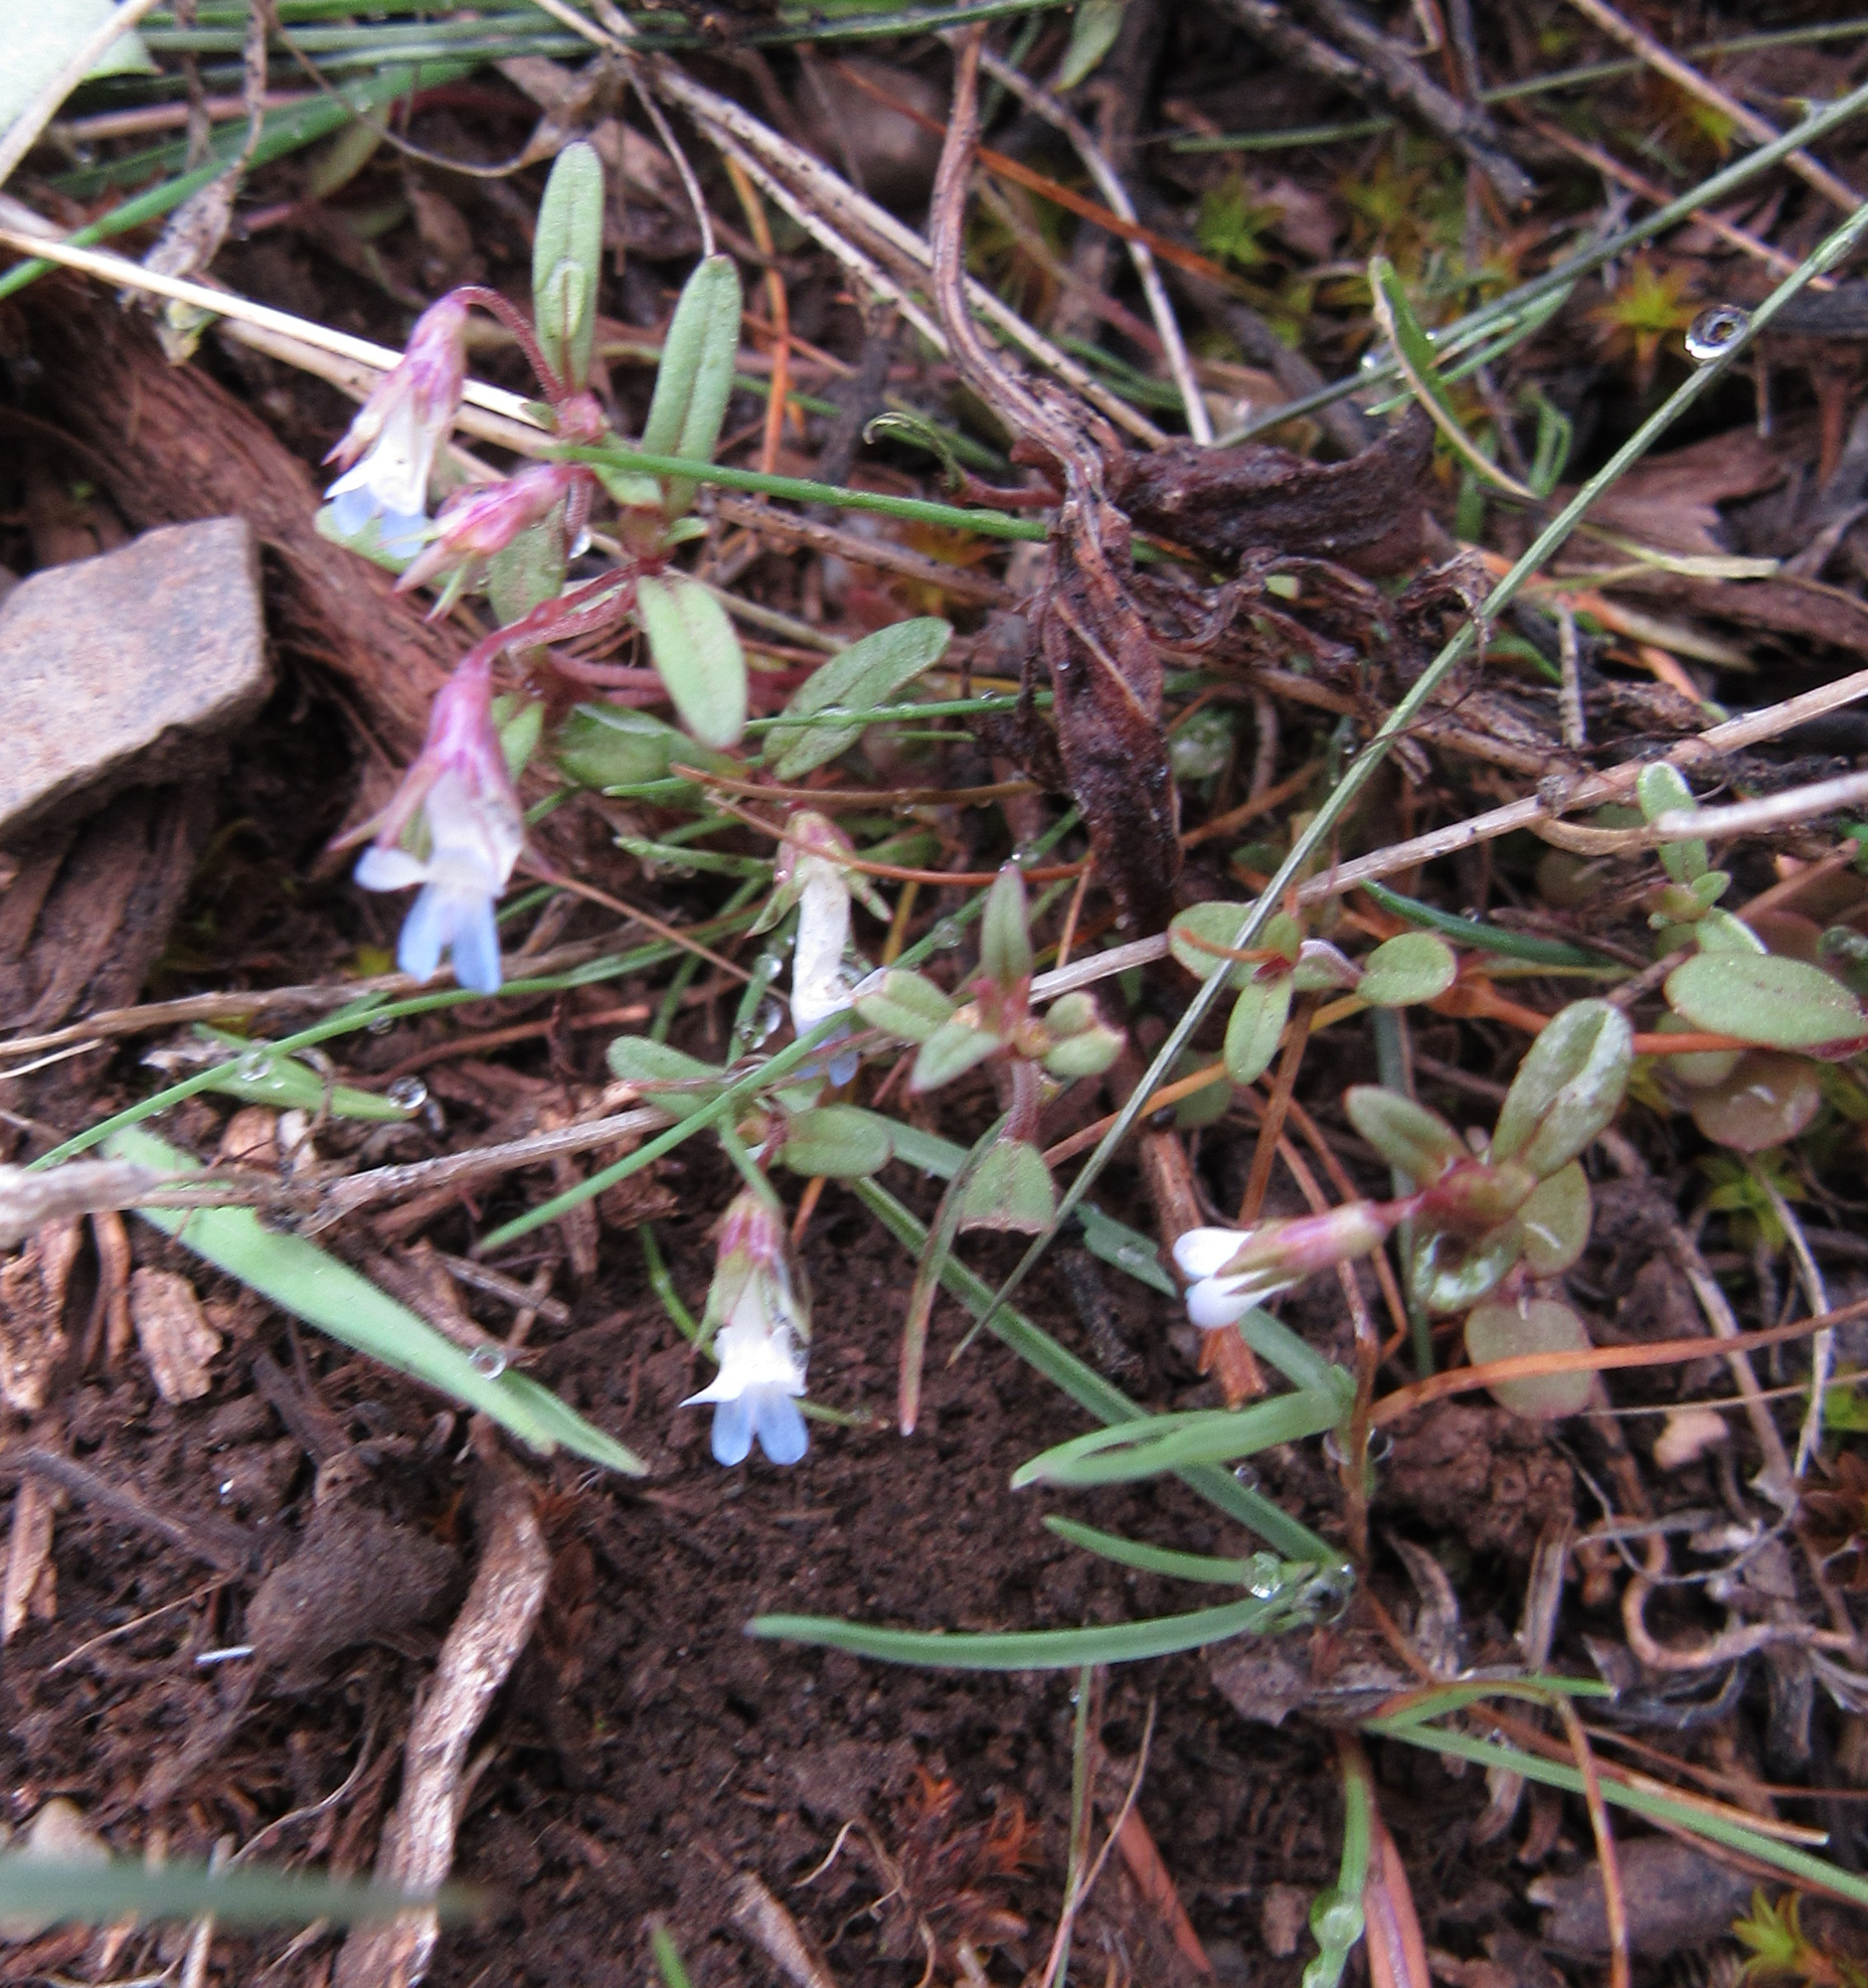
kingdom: Plantae
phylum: Tracheophyta
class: Magnoliopsida
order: Lamiales
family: Plantaginaceae
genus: Collinsia
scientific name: Collinsia parviflora
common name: Blue-lips
